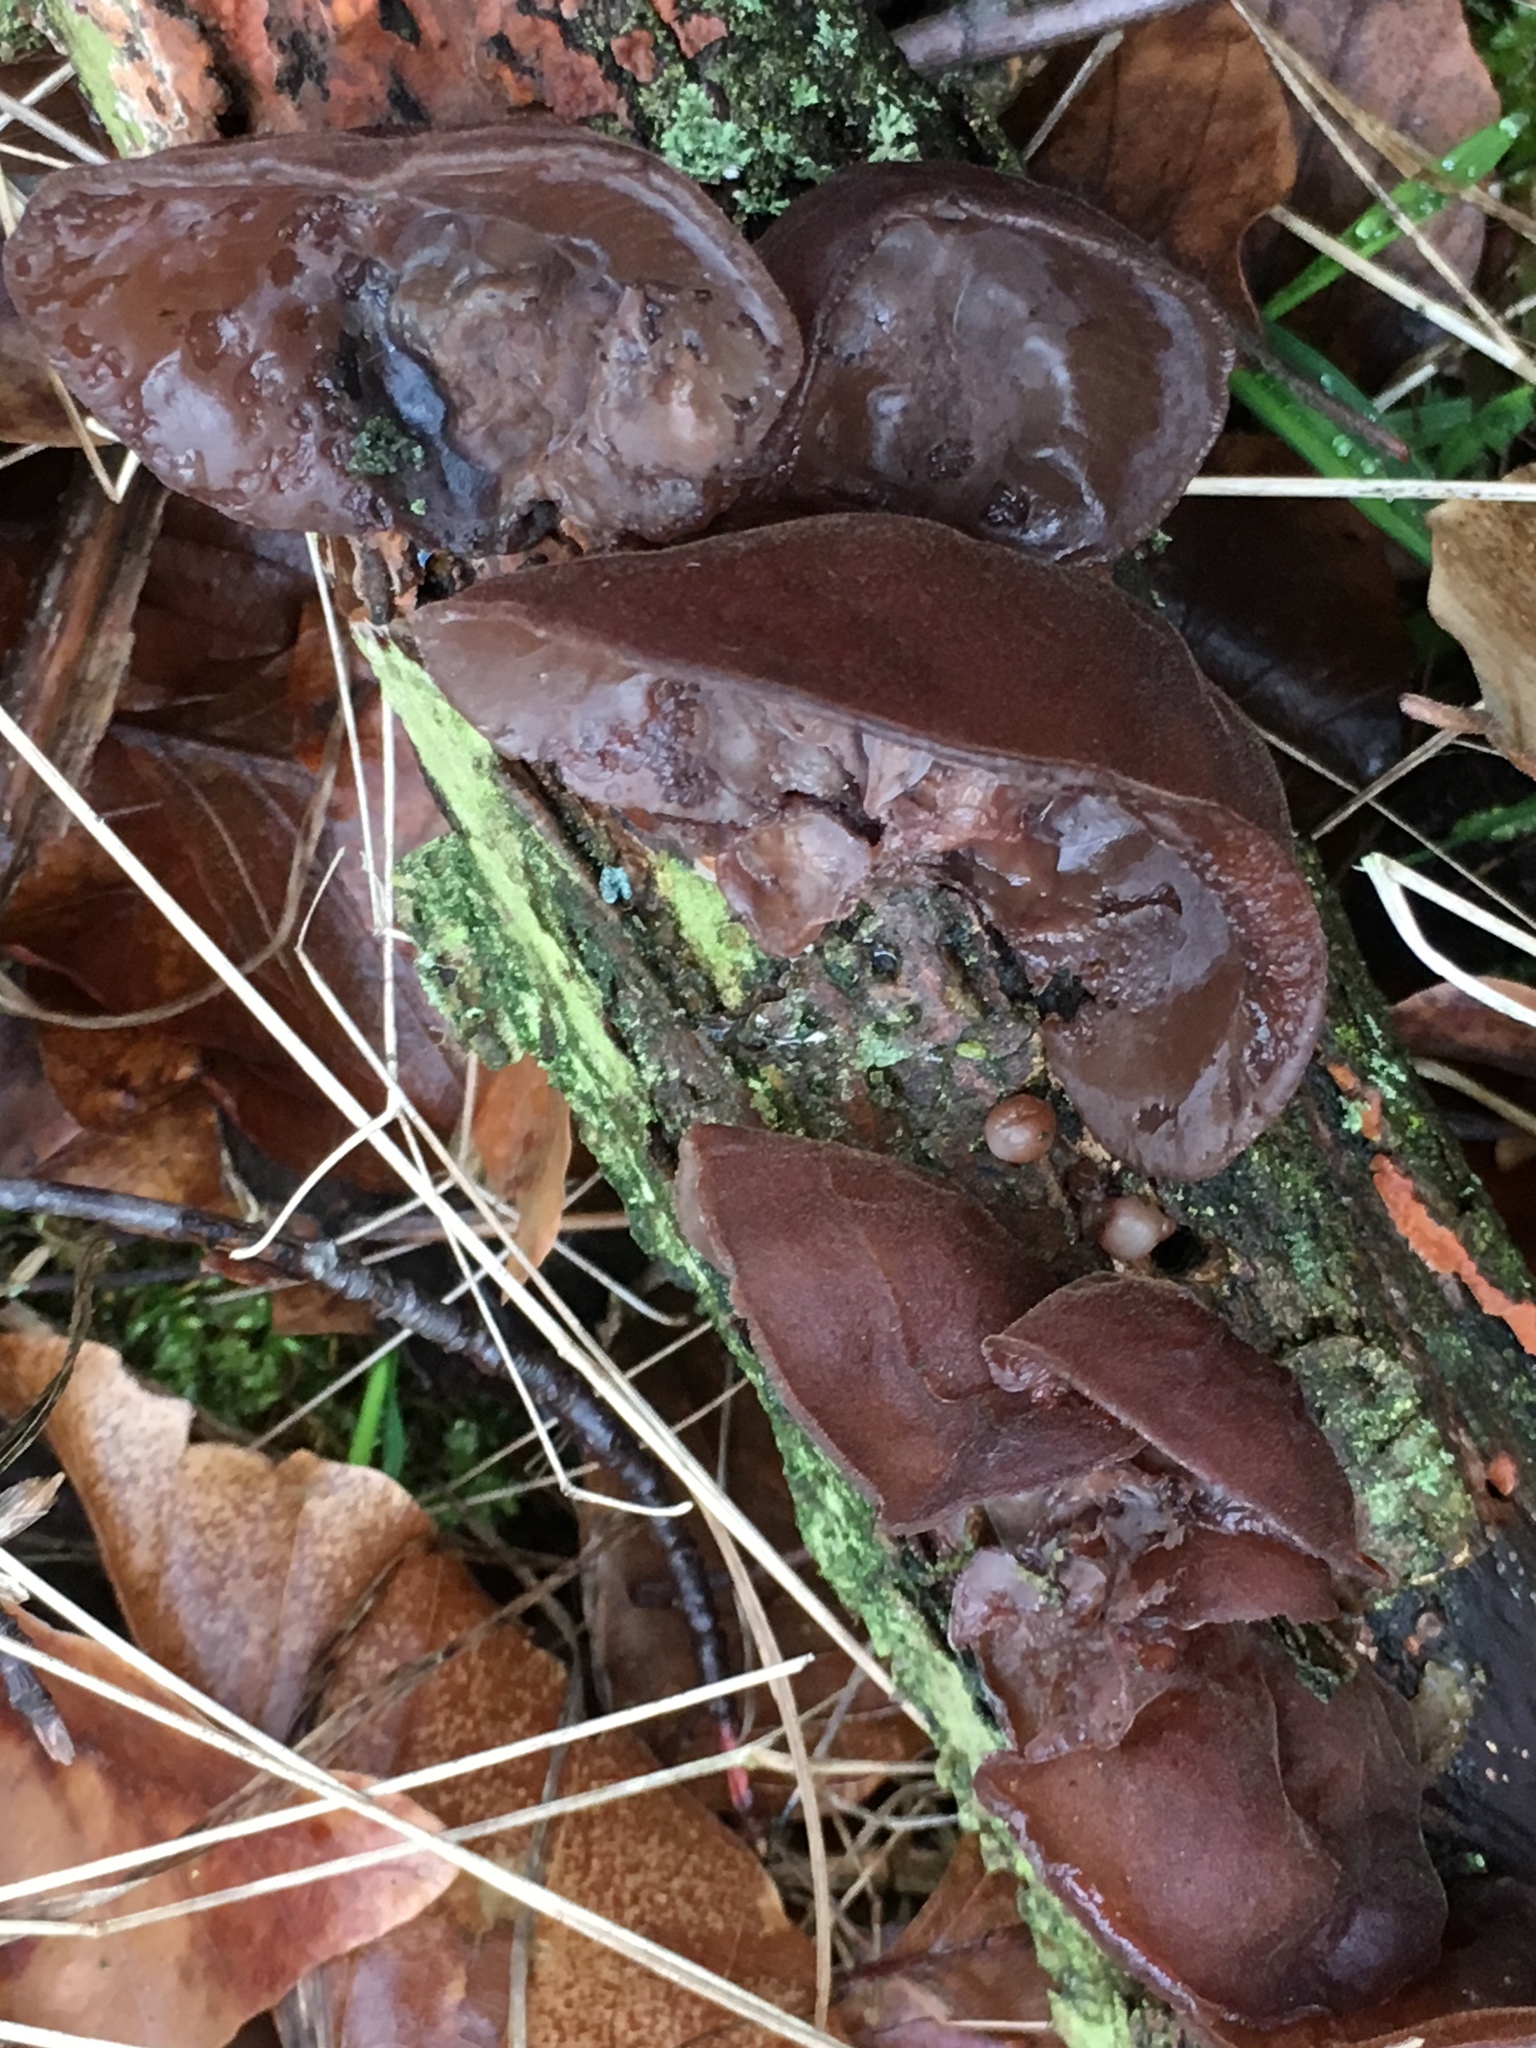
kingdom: Fungi
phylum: Basidiomycota
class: Agaricomycetes
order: Auriculariales
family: Auriculariaceae
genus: Auricularia
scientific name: Auricularia auricula-judae
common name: Jelly ear
